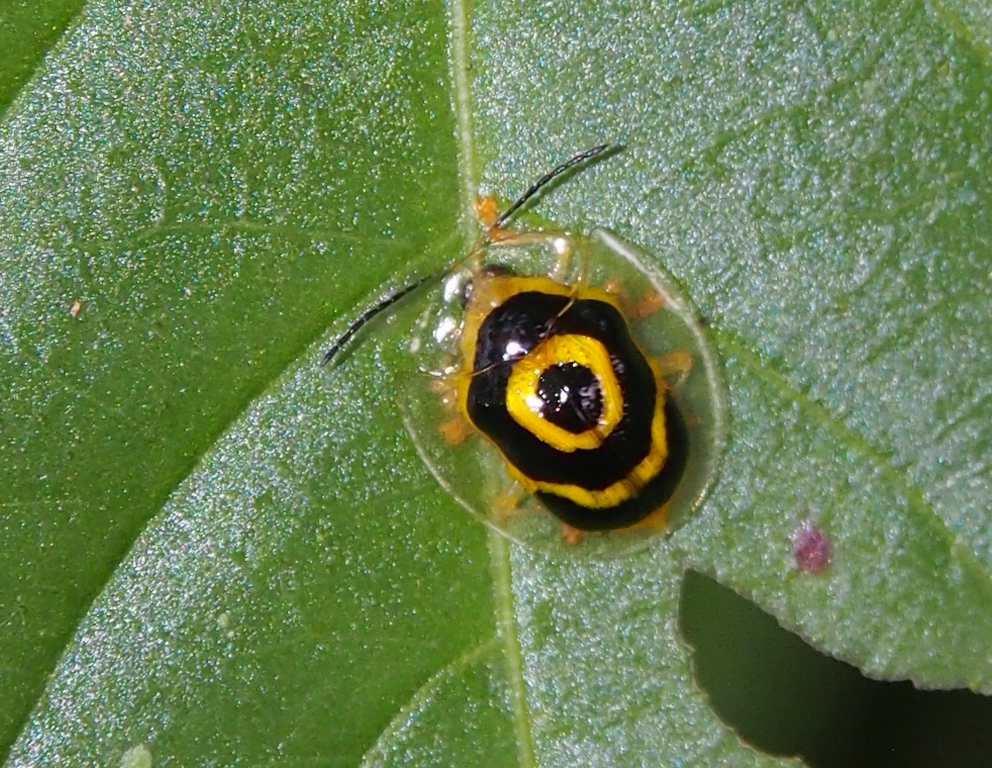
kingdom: Animalia
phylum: Arthropoda
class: Insecta
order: Coleoptera
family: Chrysomelidae
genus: Ischnocodia
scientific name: Ischnocodia annulus
